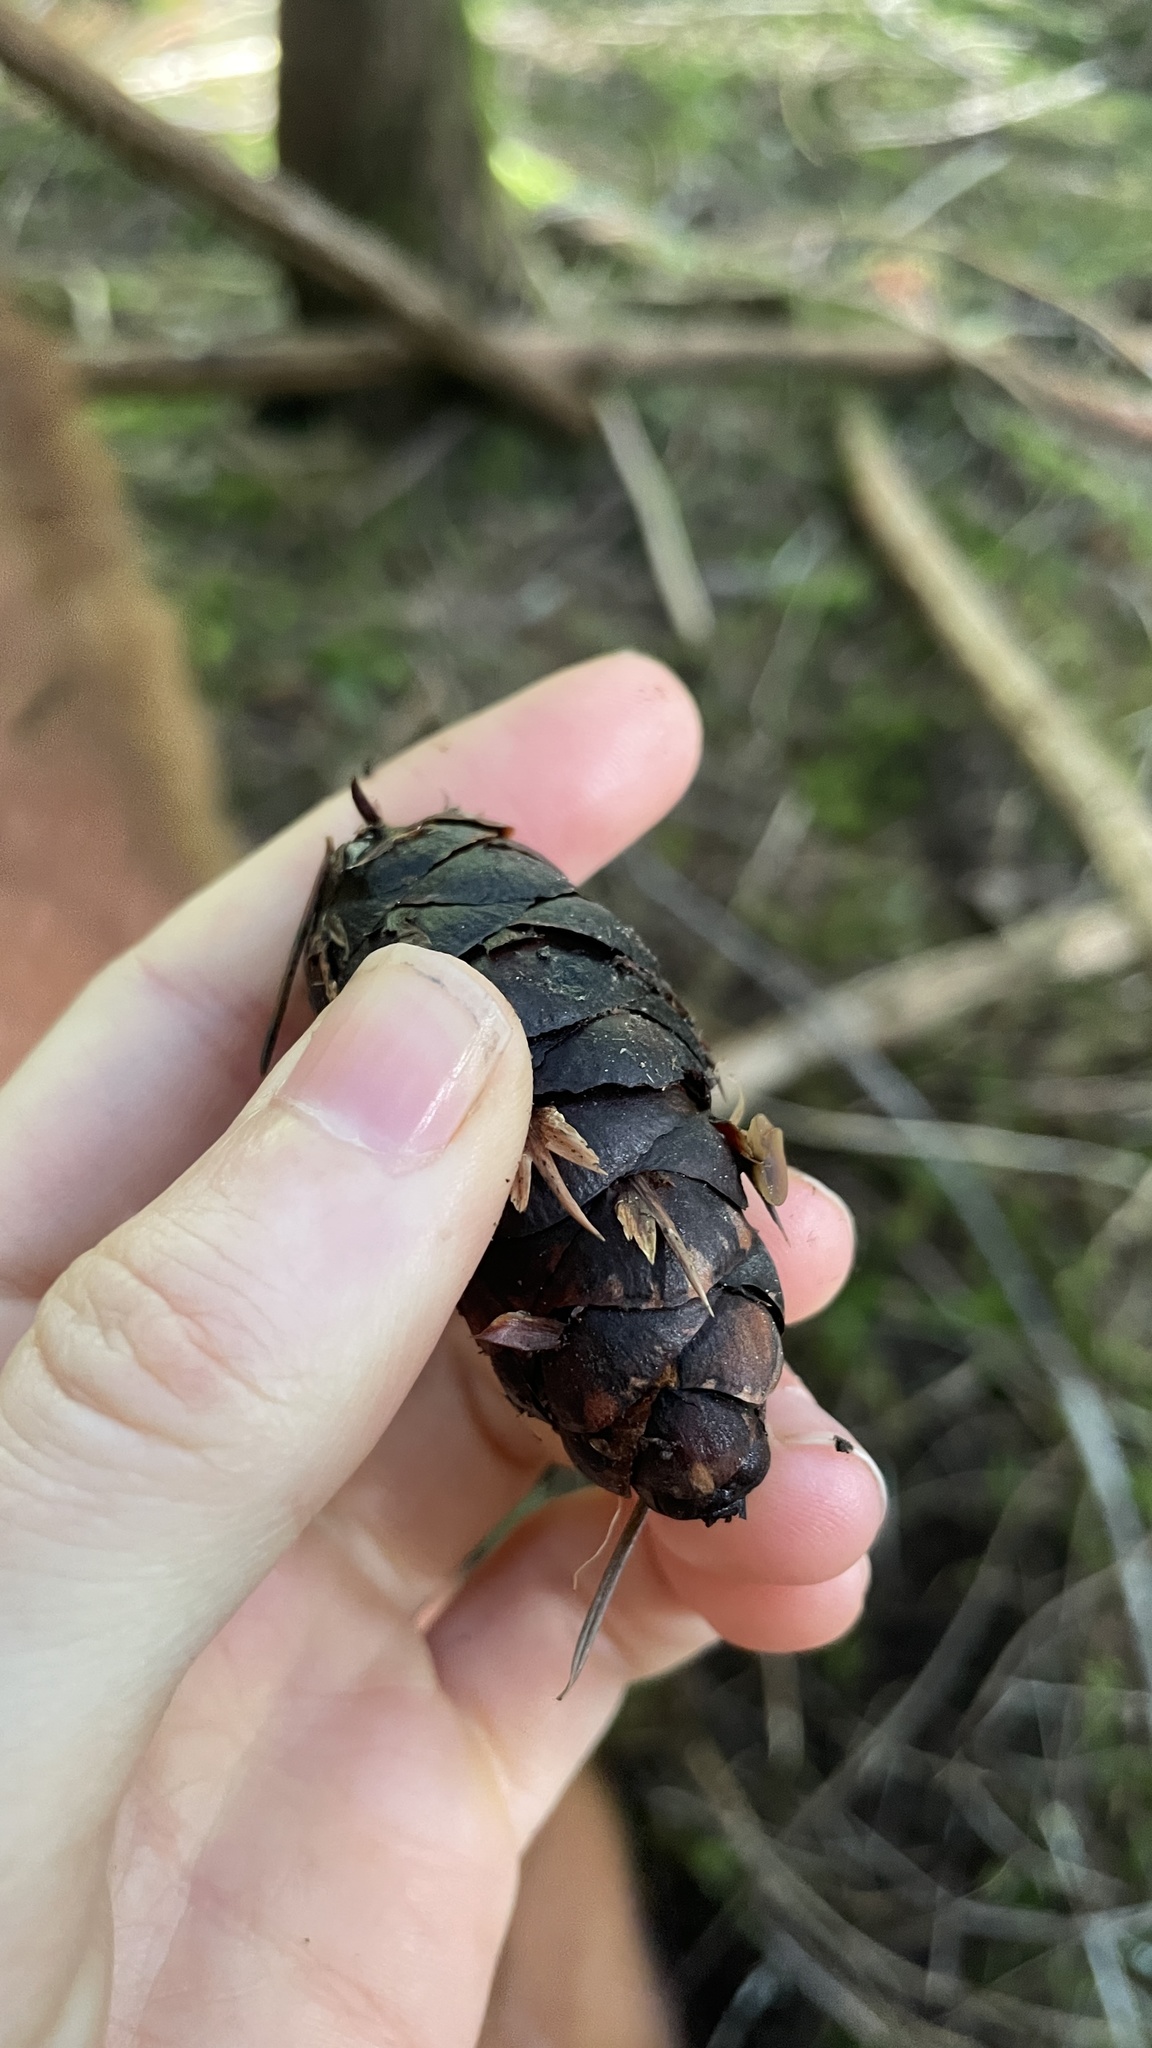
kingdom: Fungi
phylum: Ascomycota
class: Leotiomycetes
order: Helotiales
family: Sclerotiniaceae
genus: Ciboria
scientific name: Ciboria rufofusca
